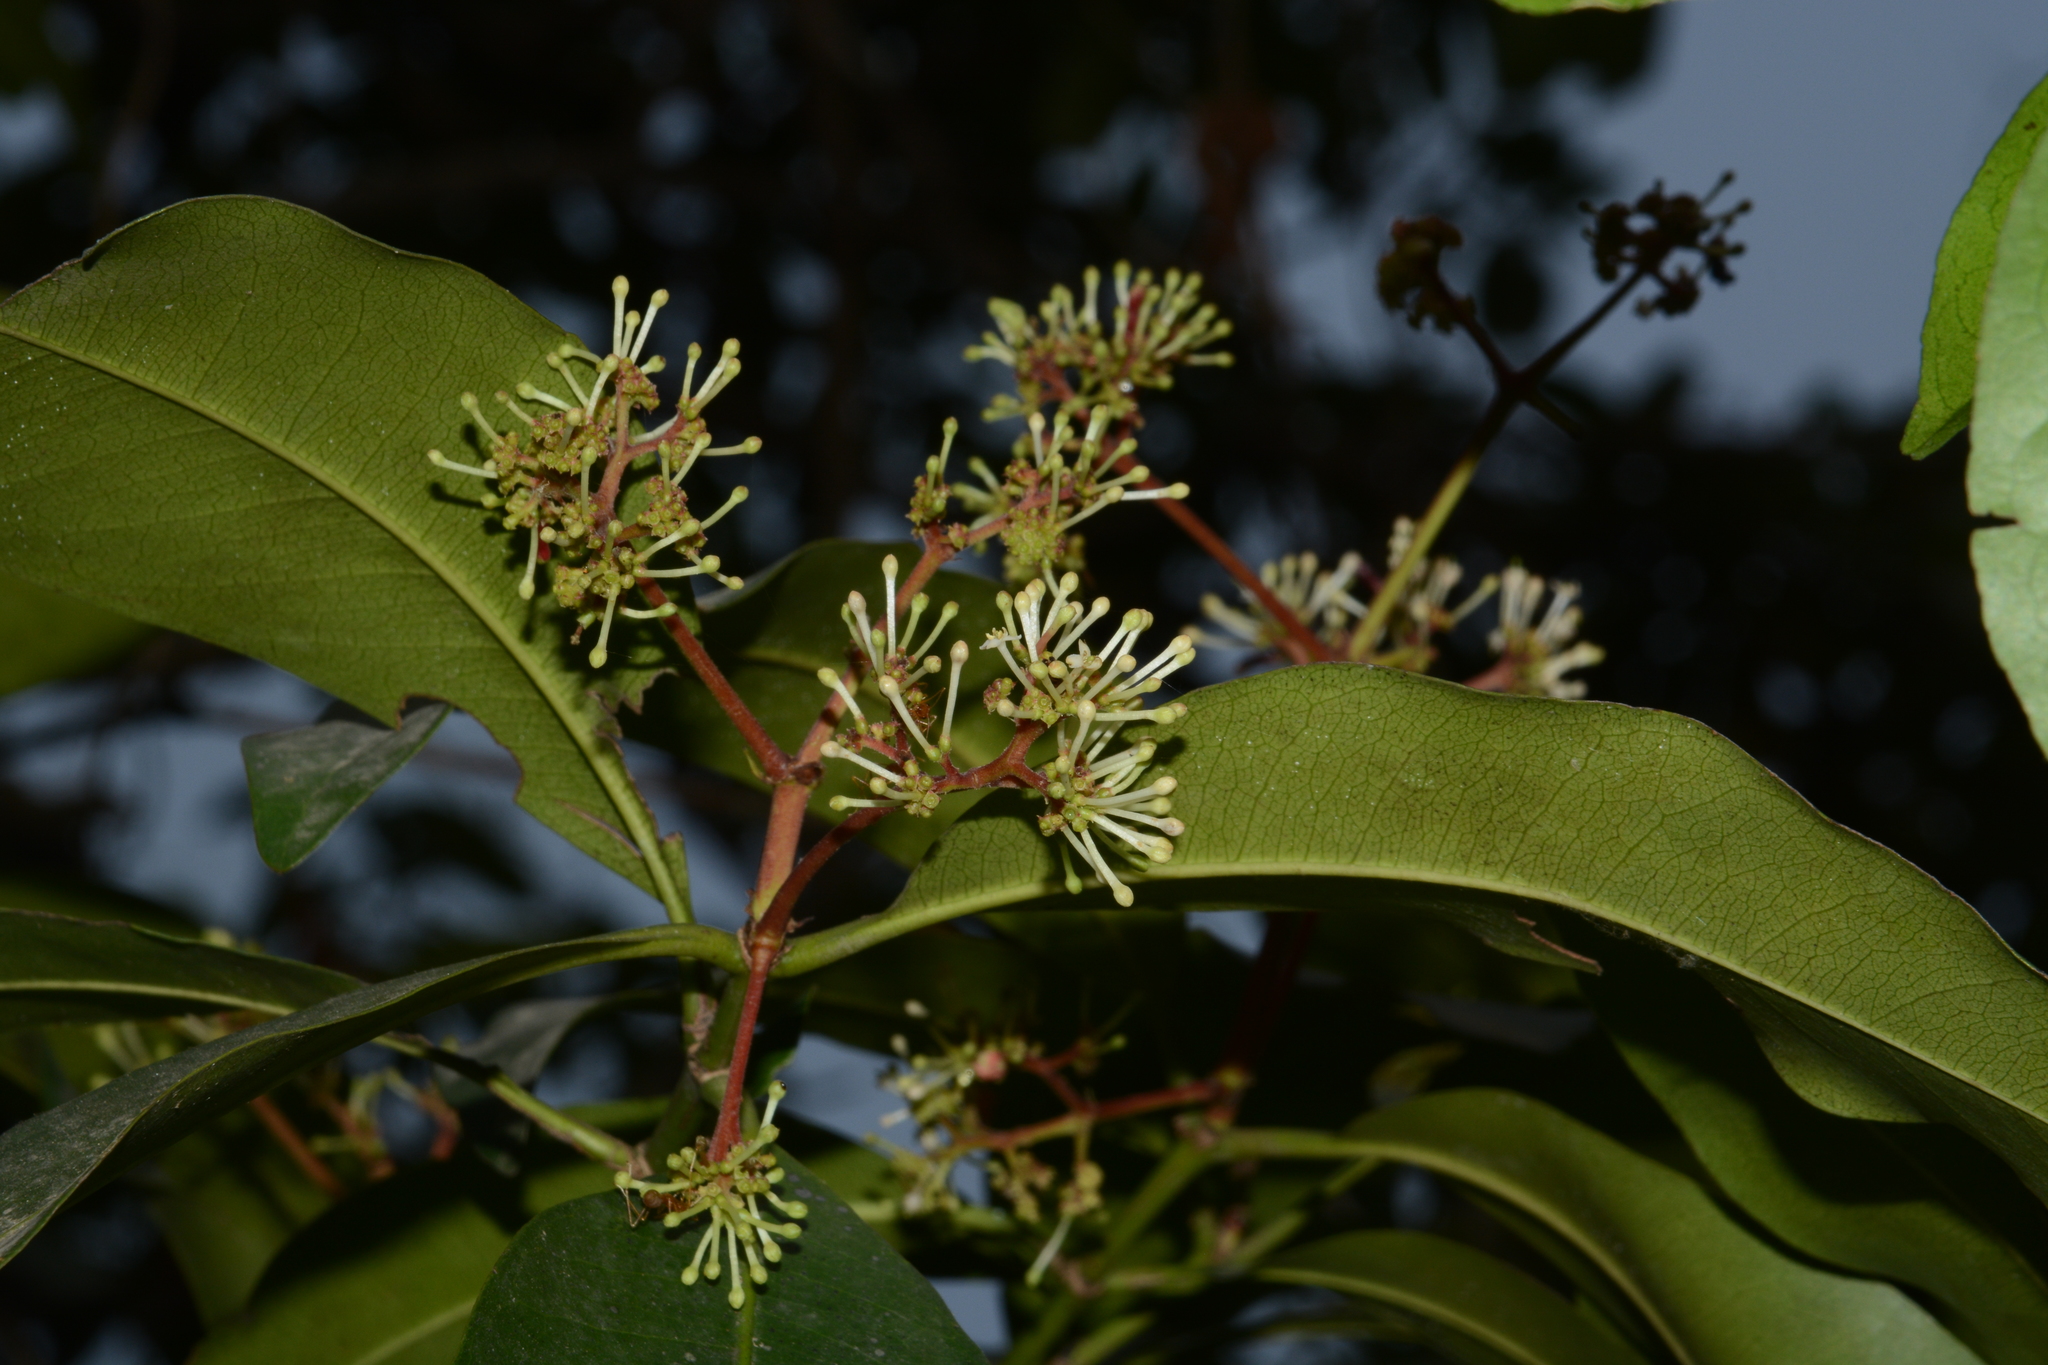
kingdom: Plantae
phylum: Tracheophyta
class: Magnoliopsida
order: Gentianales
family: Rubiaceae
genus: Ixora
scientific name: Ixora brachiata
